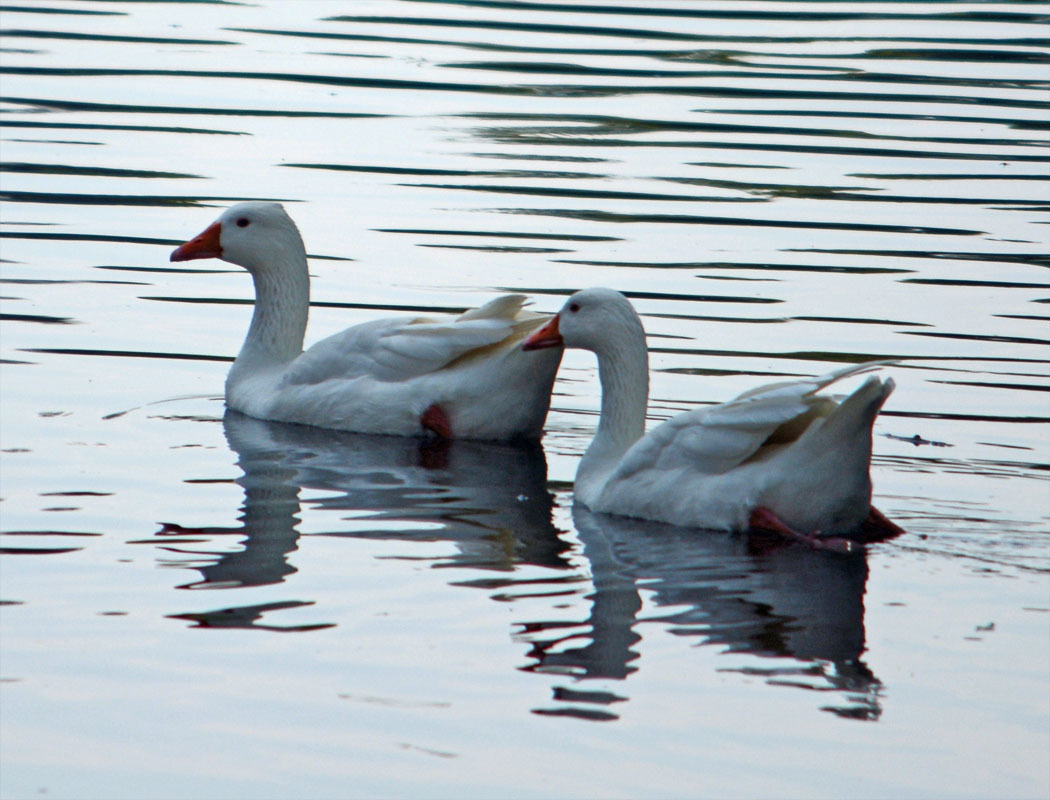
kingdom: Animalia
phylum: Chordata
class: Aves
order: Anseriformes
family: Anatidae
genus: Anser
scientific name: Anser anser
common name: Greylag goose
